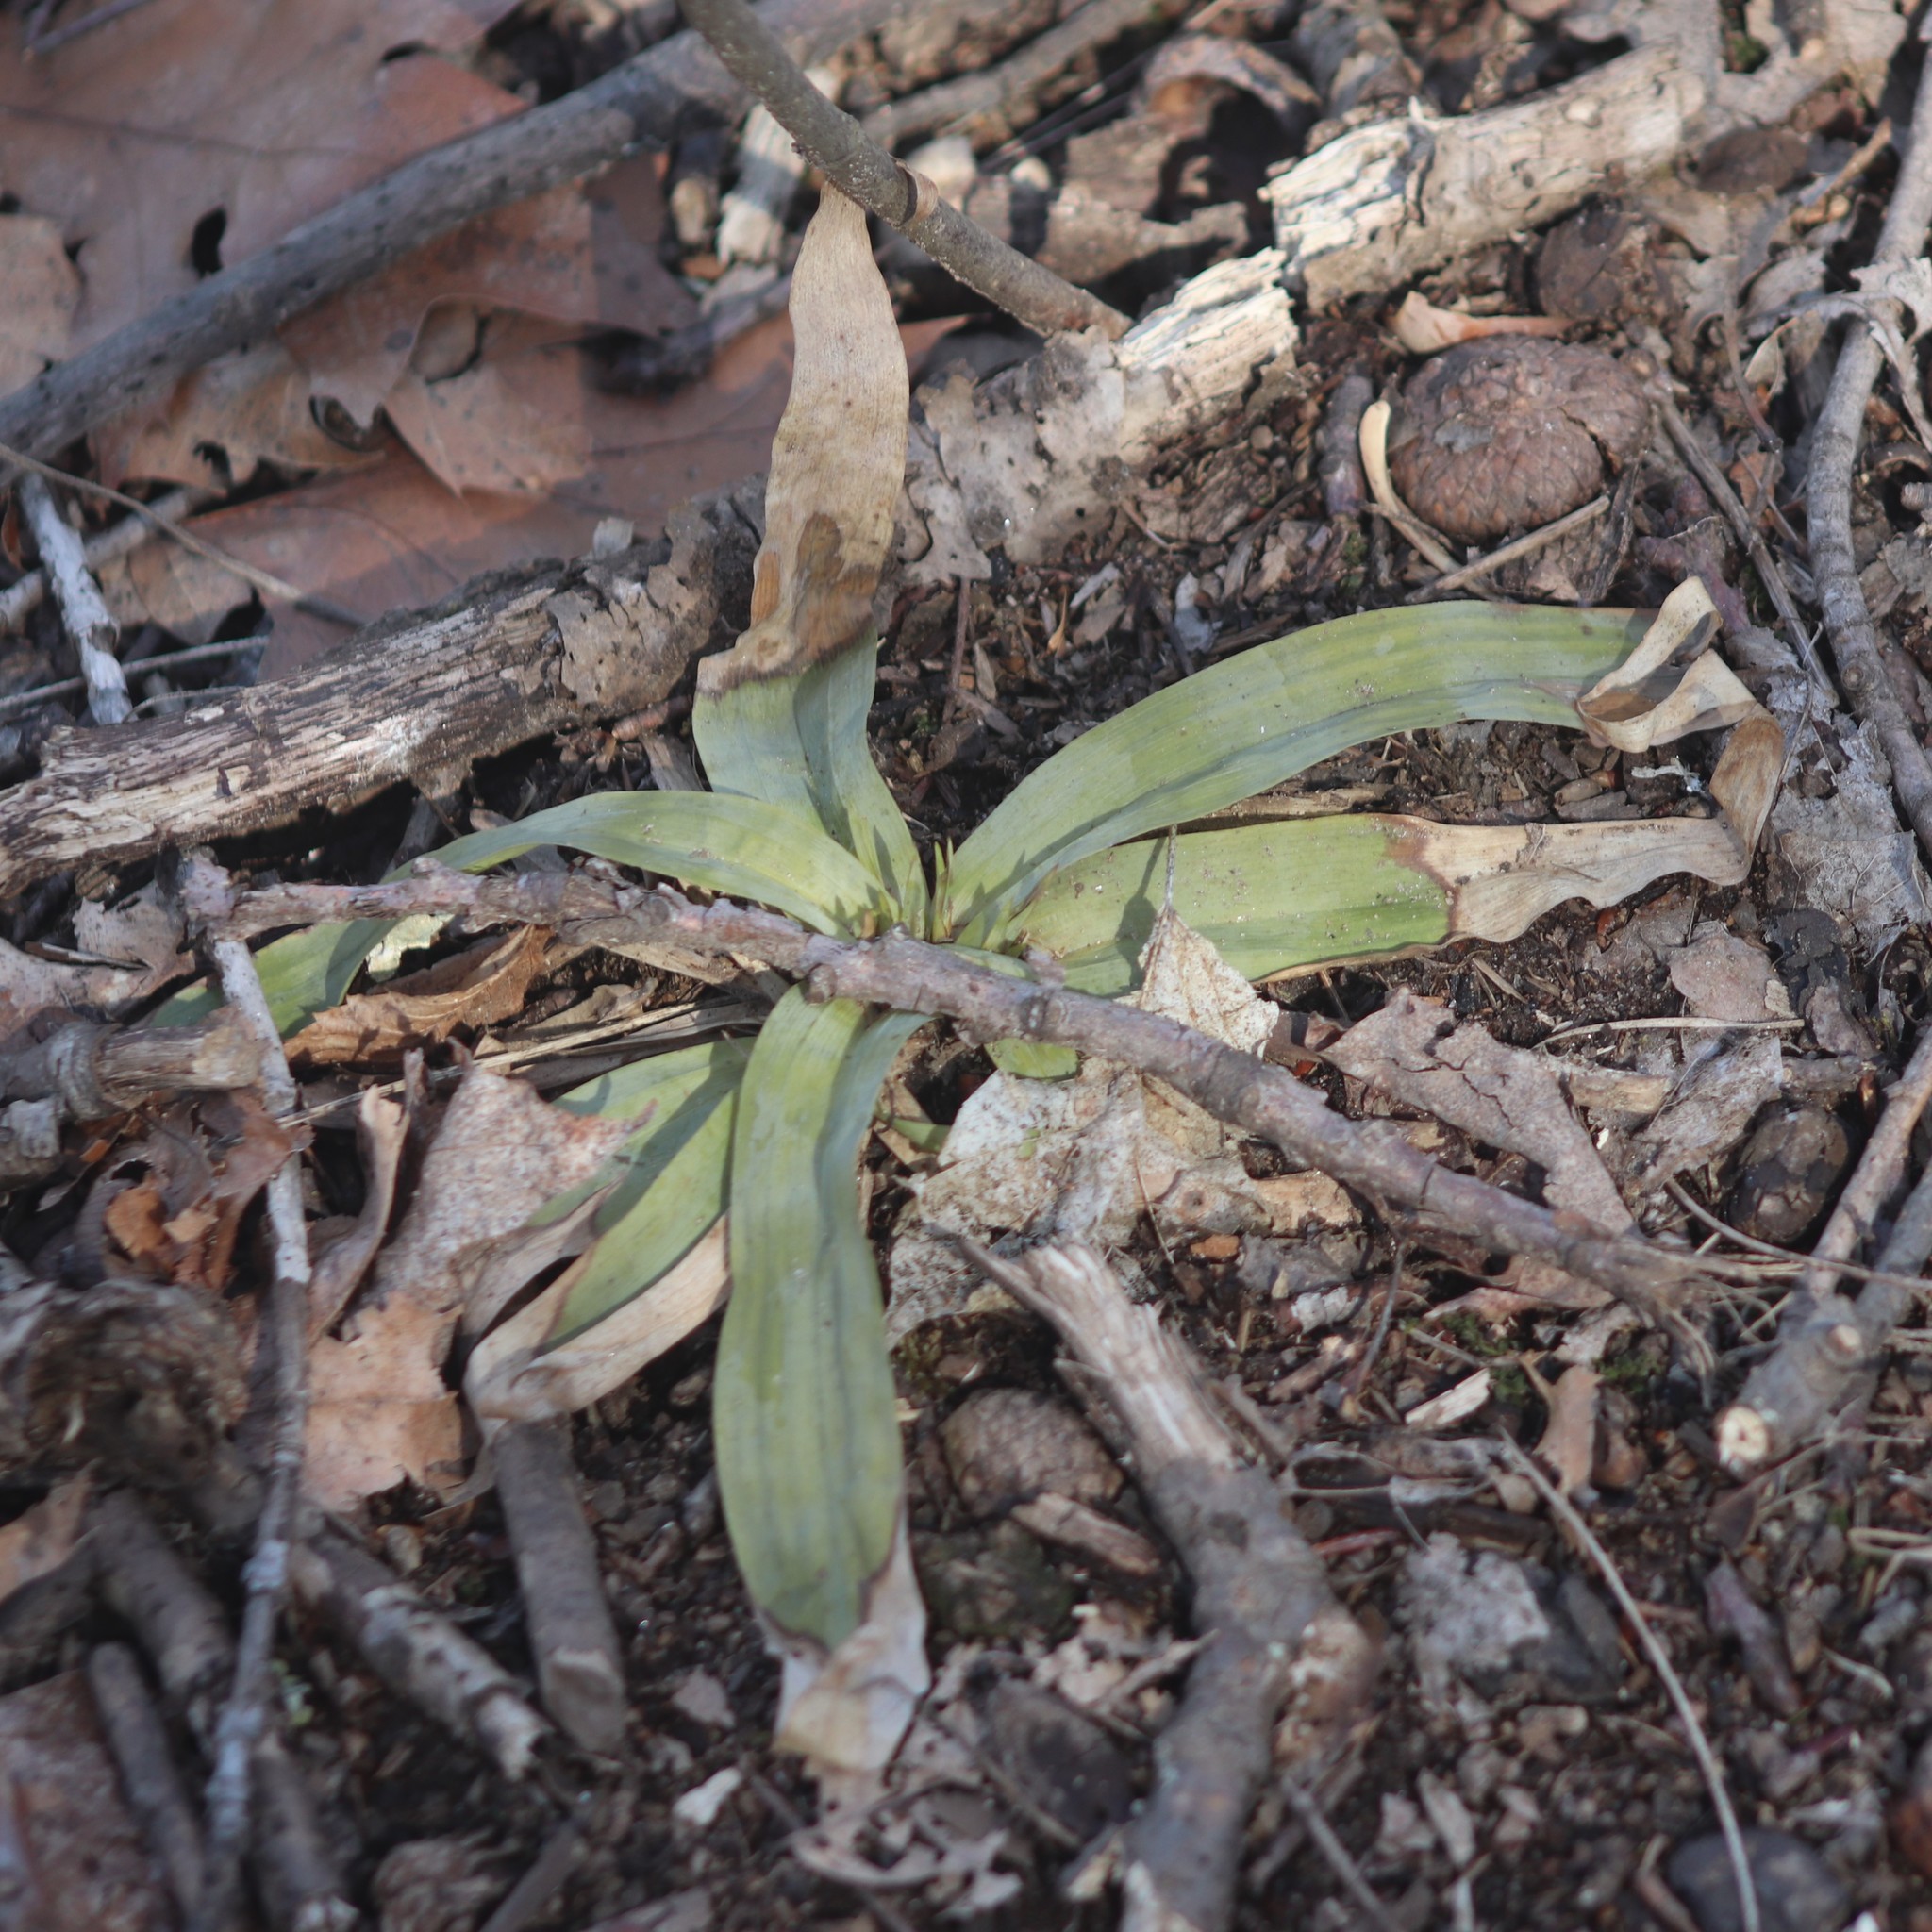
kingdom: Plantae
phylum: Tracheophyta
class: Liliopsida
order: Poales
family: Cyperaceae
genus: Carex
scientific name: Carex platyphylla
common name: Broad-leaved sedge
